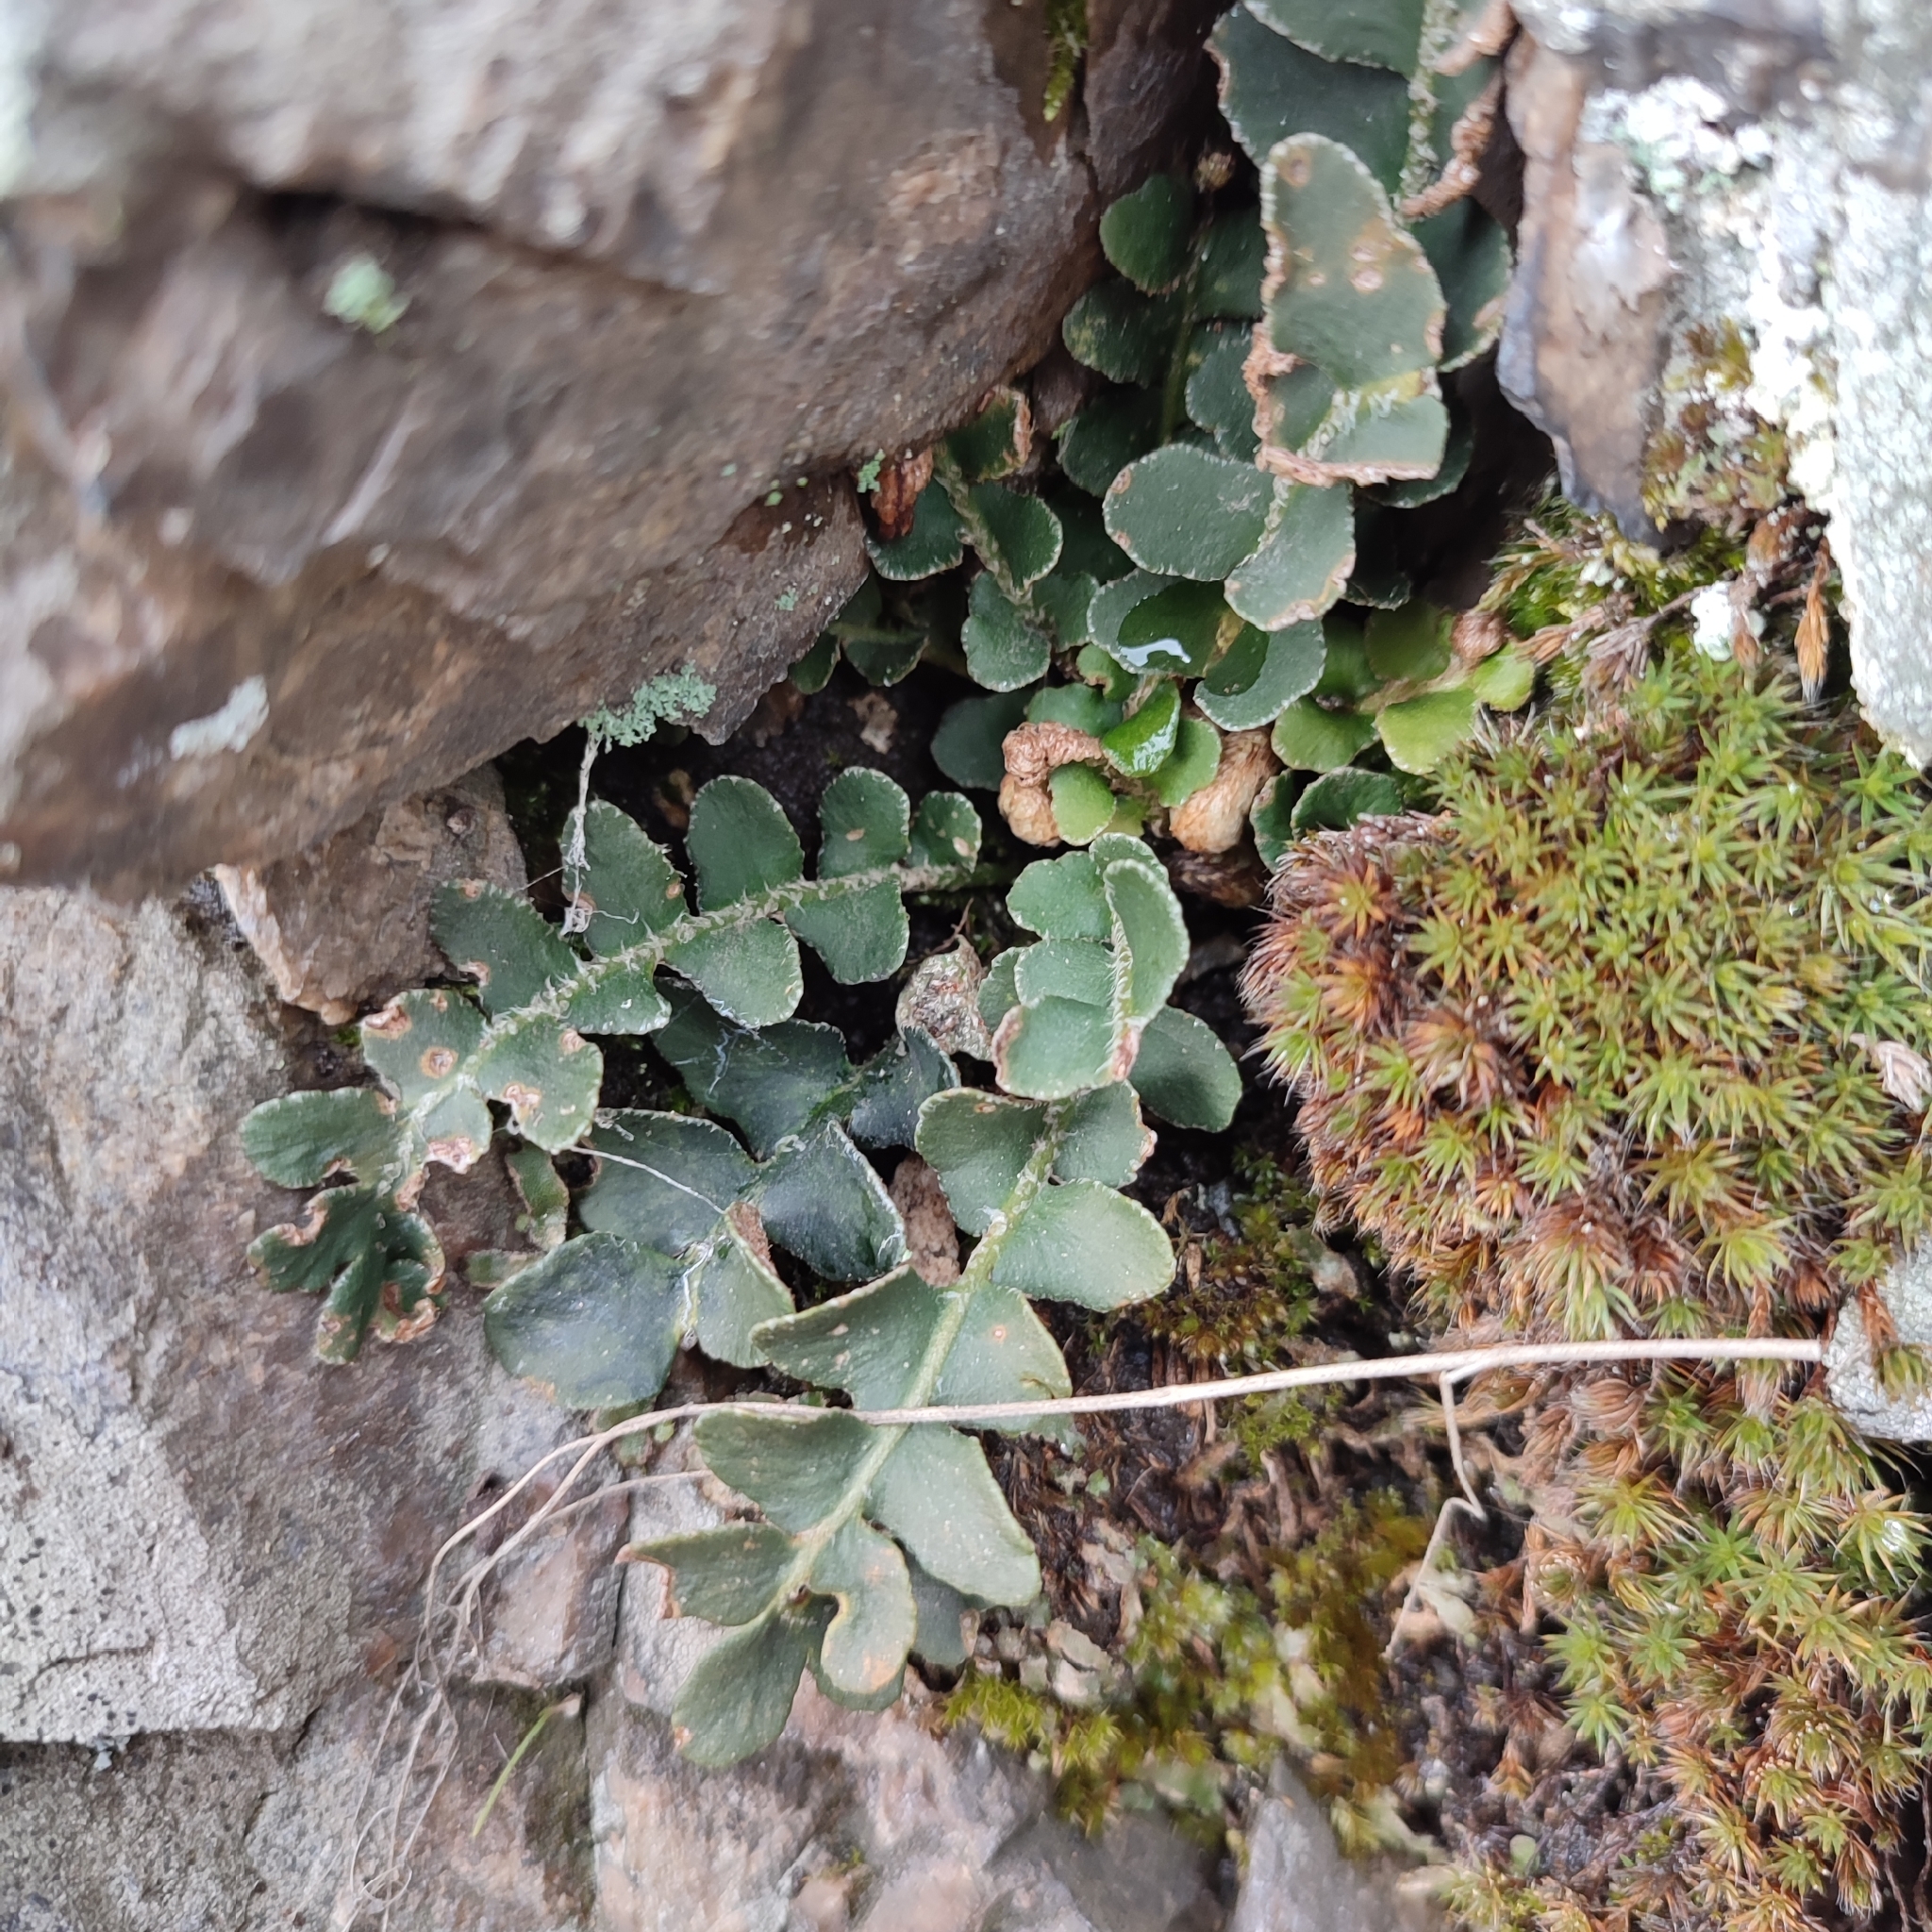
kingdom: Plantae
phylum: Tracheophyta
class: Polypodiopsida
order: Polypodiales
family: Aspleniaceae
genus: Asplenium
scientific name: Asplenium ceterach
